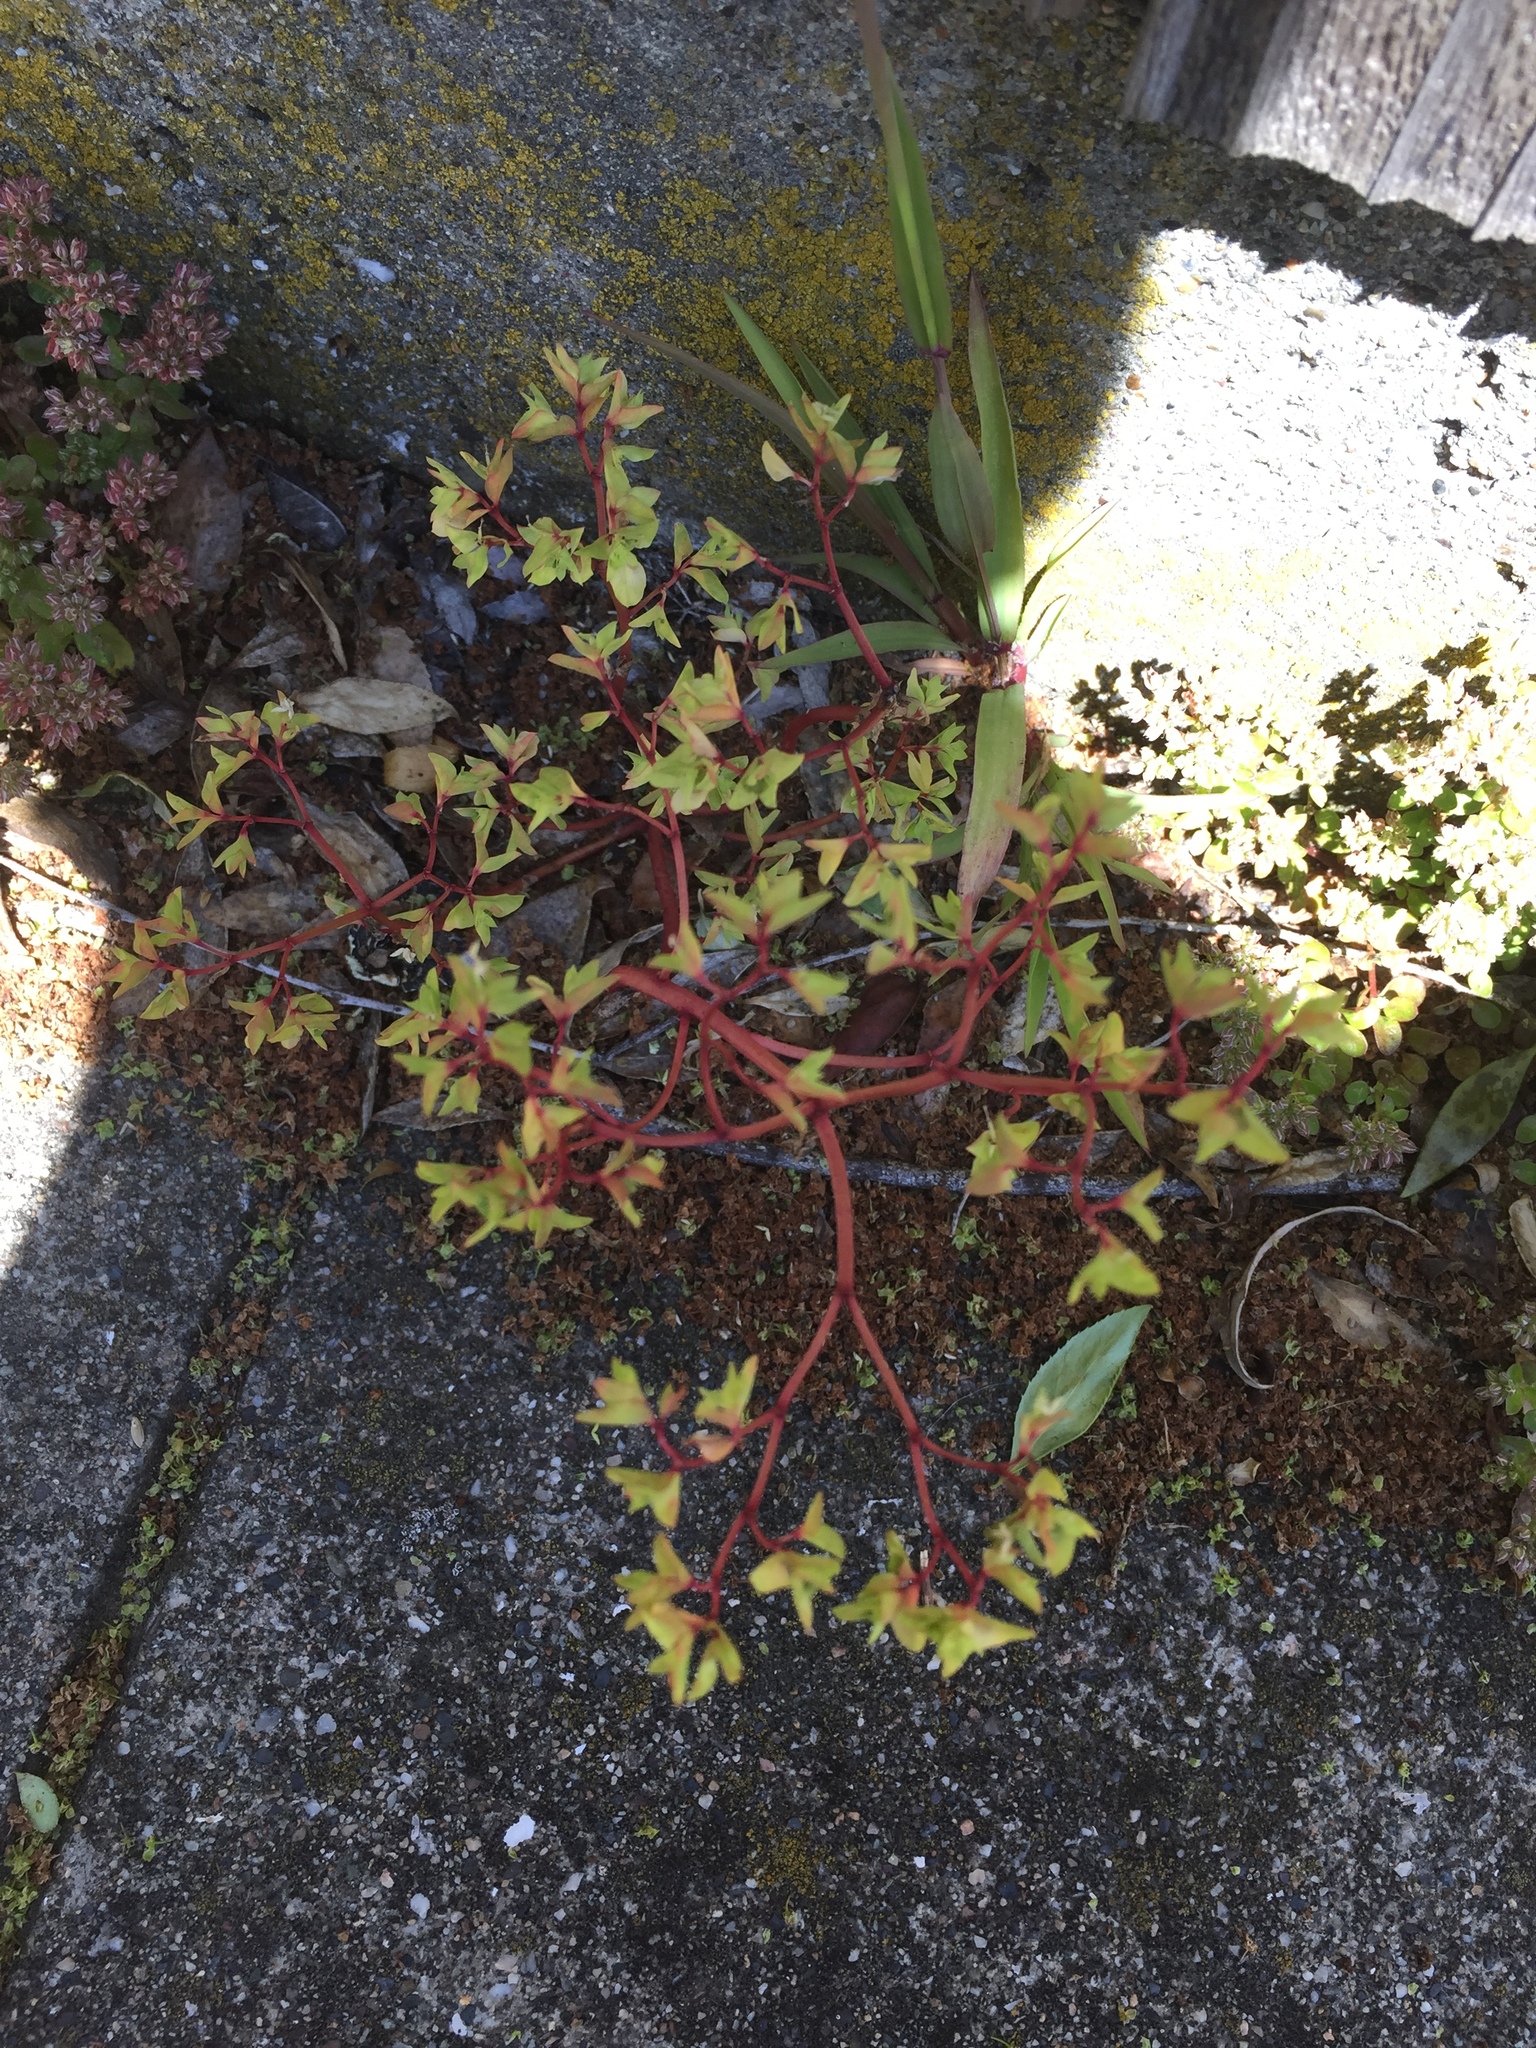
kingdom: Plantae
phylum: Tracheophyta
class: Magnoliopsida
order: Malpighiales
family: Euphorbiaceae
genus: Euphorbia
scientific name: Euphorbia peplus
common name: Petty spurge
